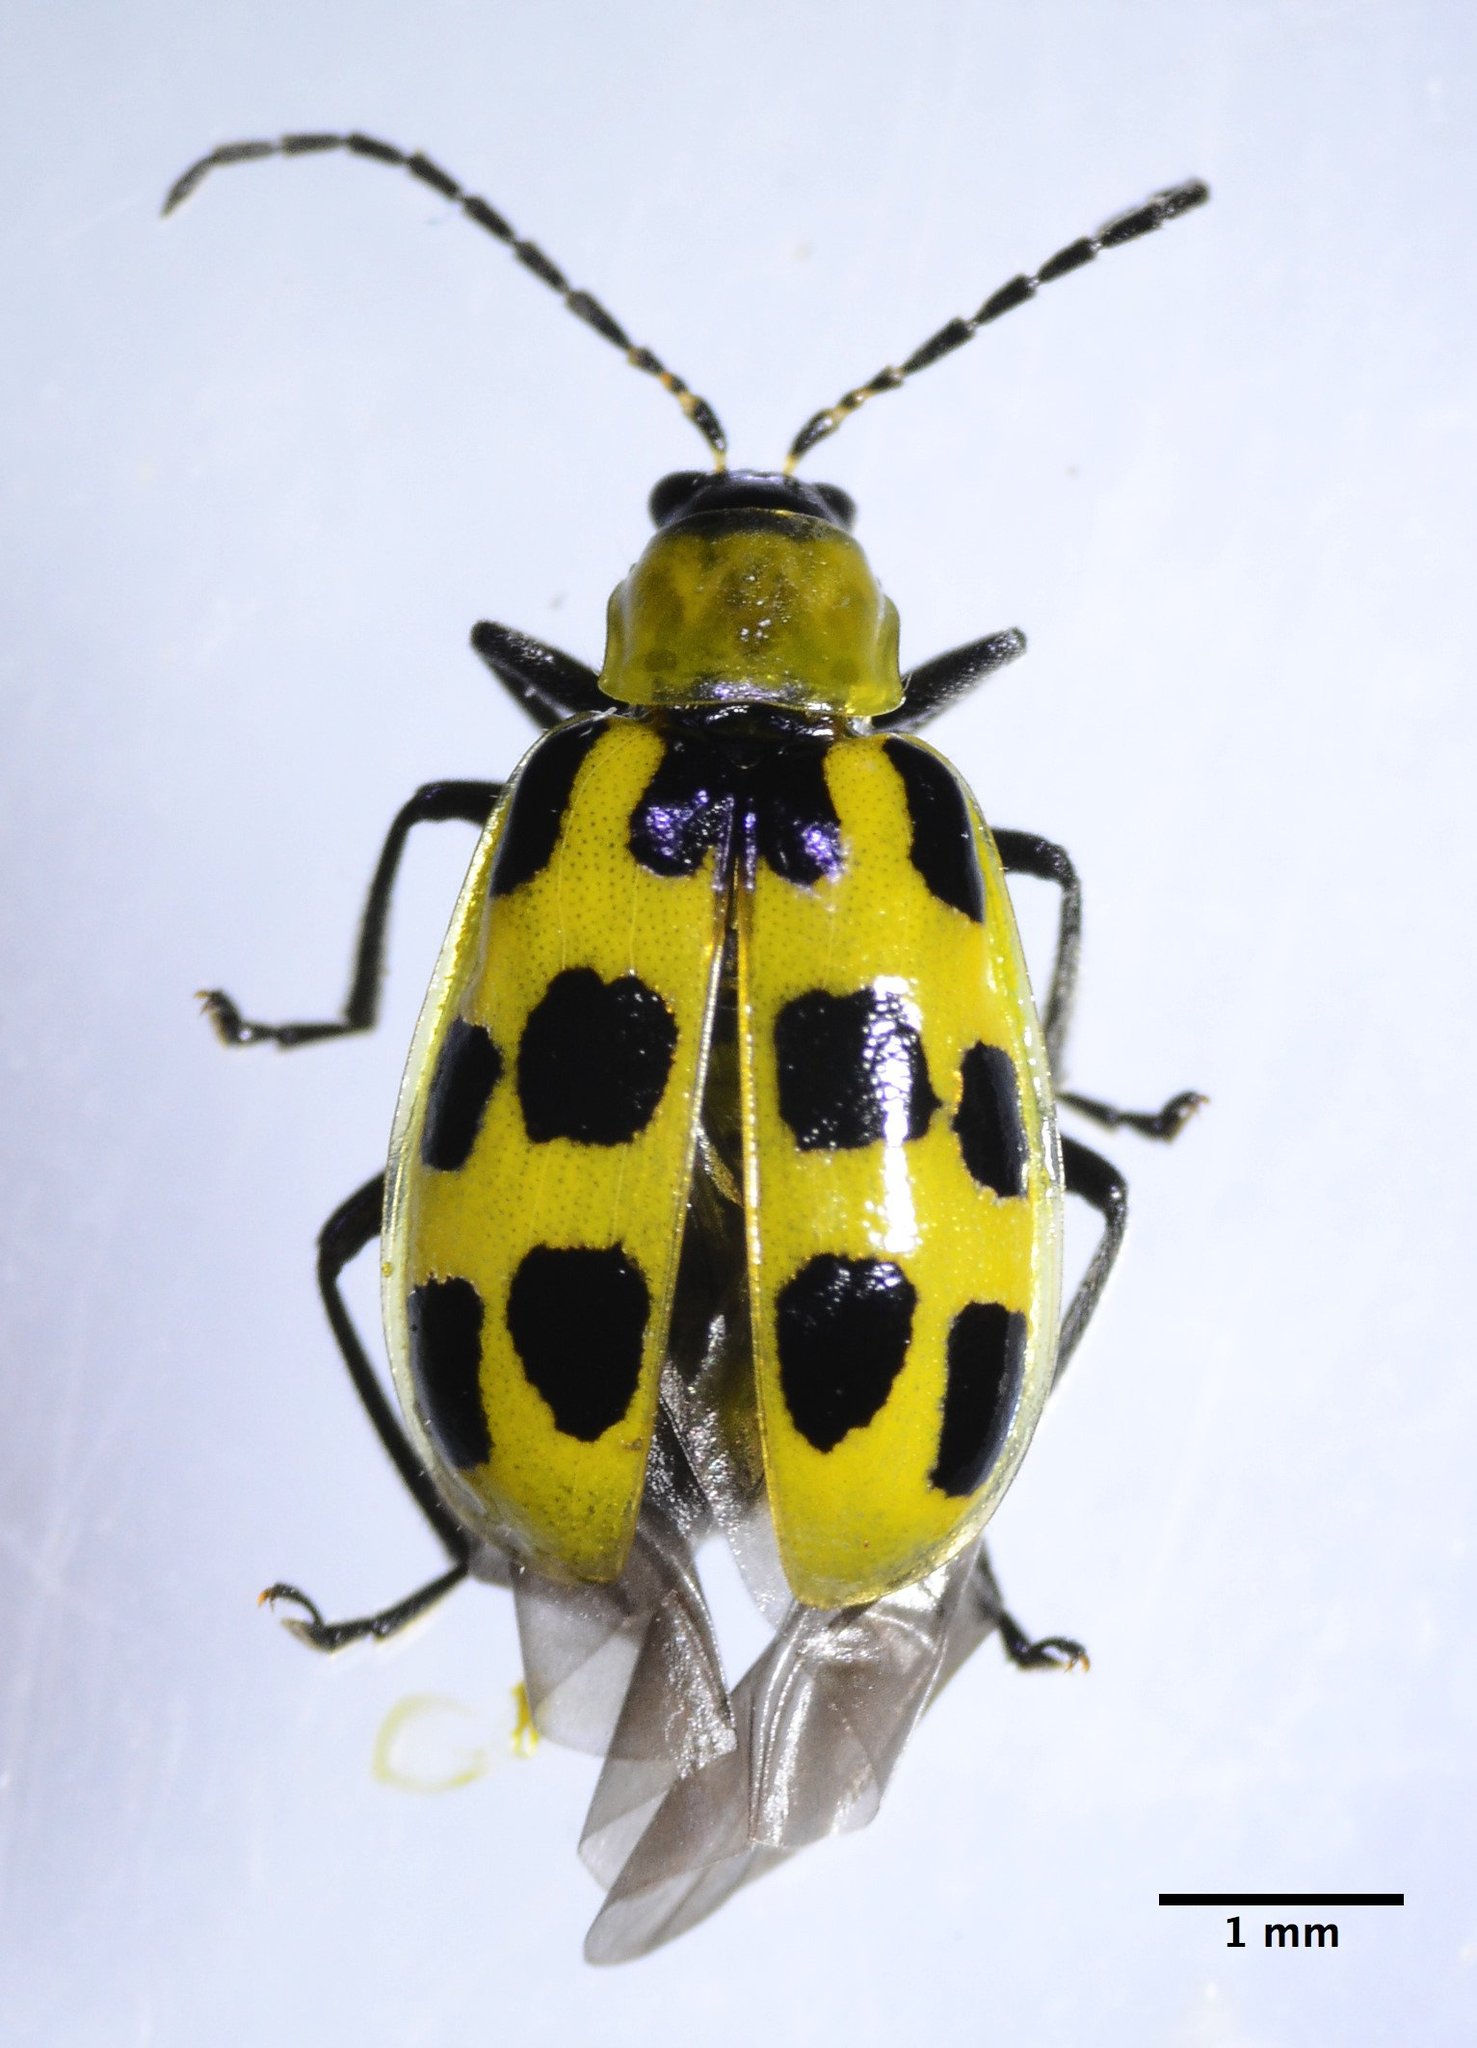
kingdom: Animalia
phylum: Arthropoda
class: Insecta
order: Coleoptera
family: Chrysomelidae
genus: Diabrotica
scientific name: Diabrotica undecimpunctata
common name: Spotted cucumber beetle
